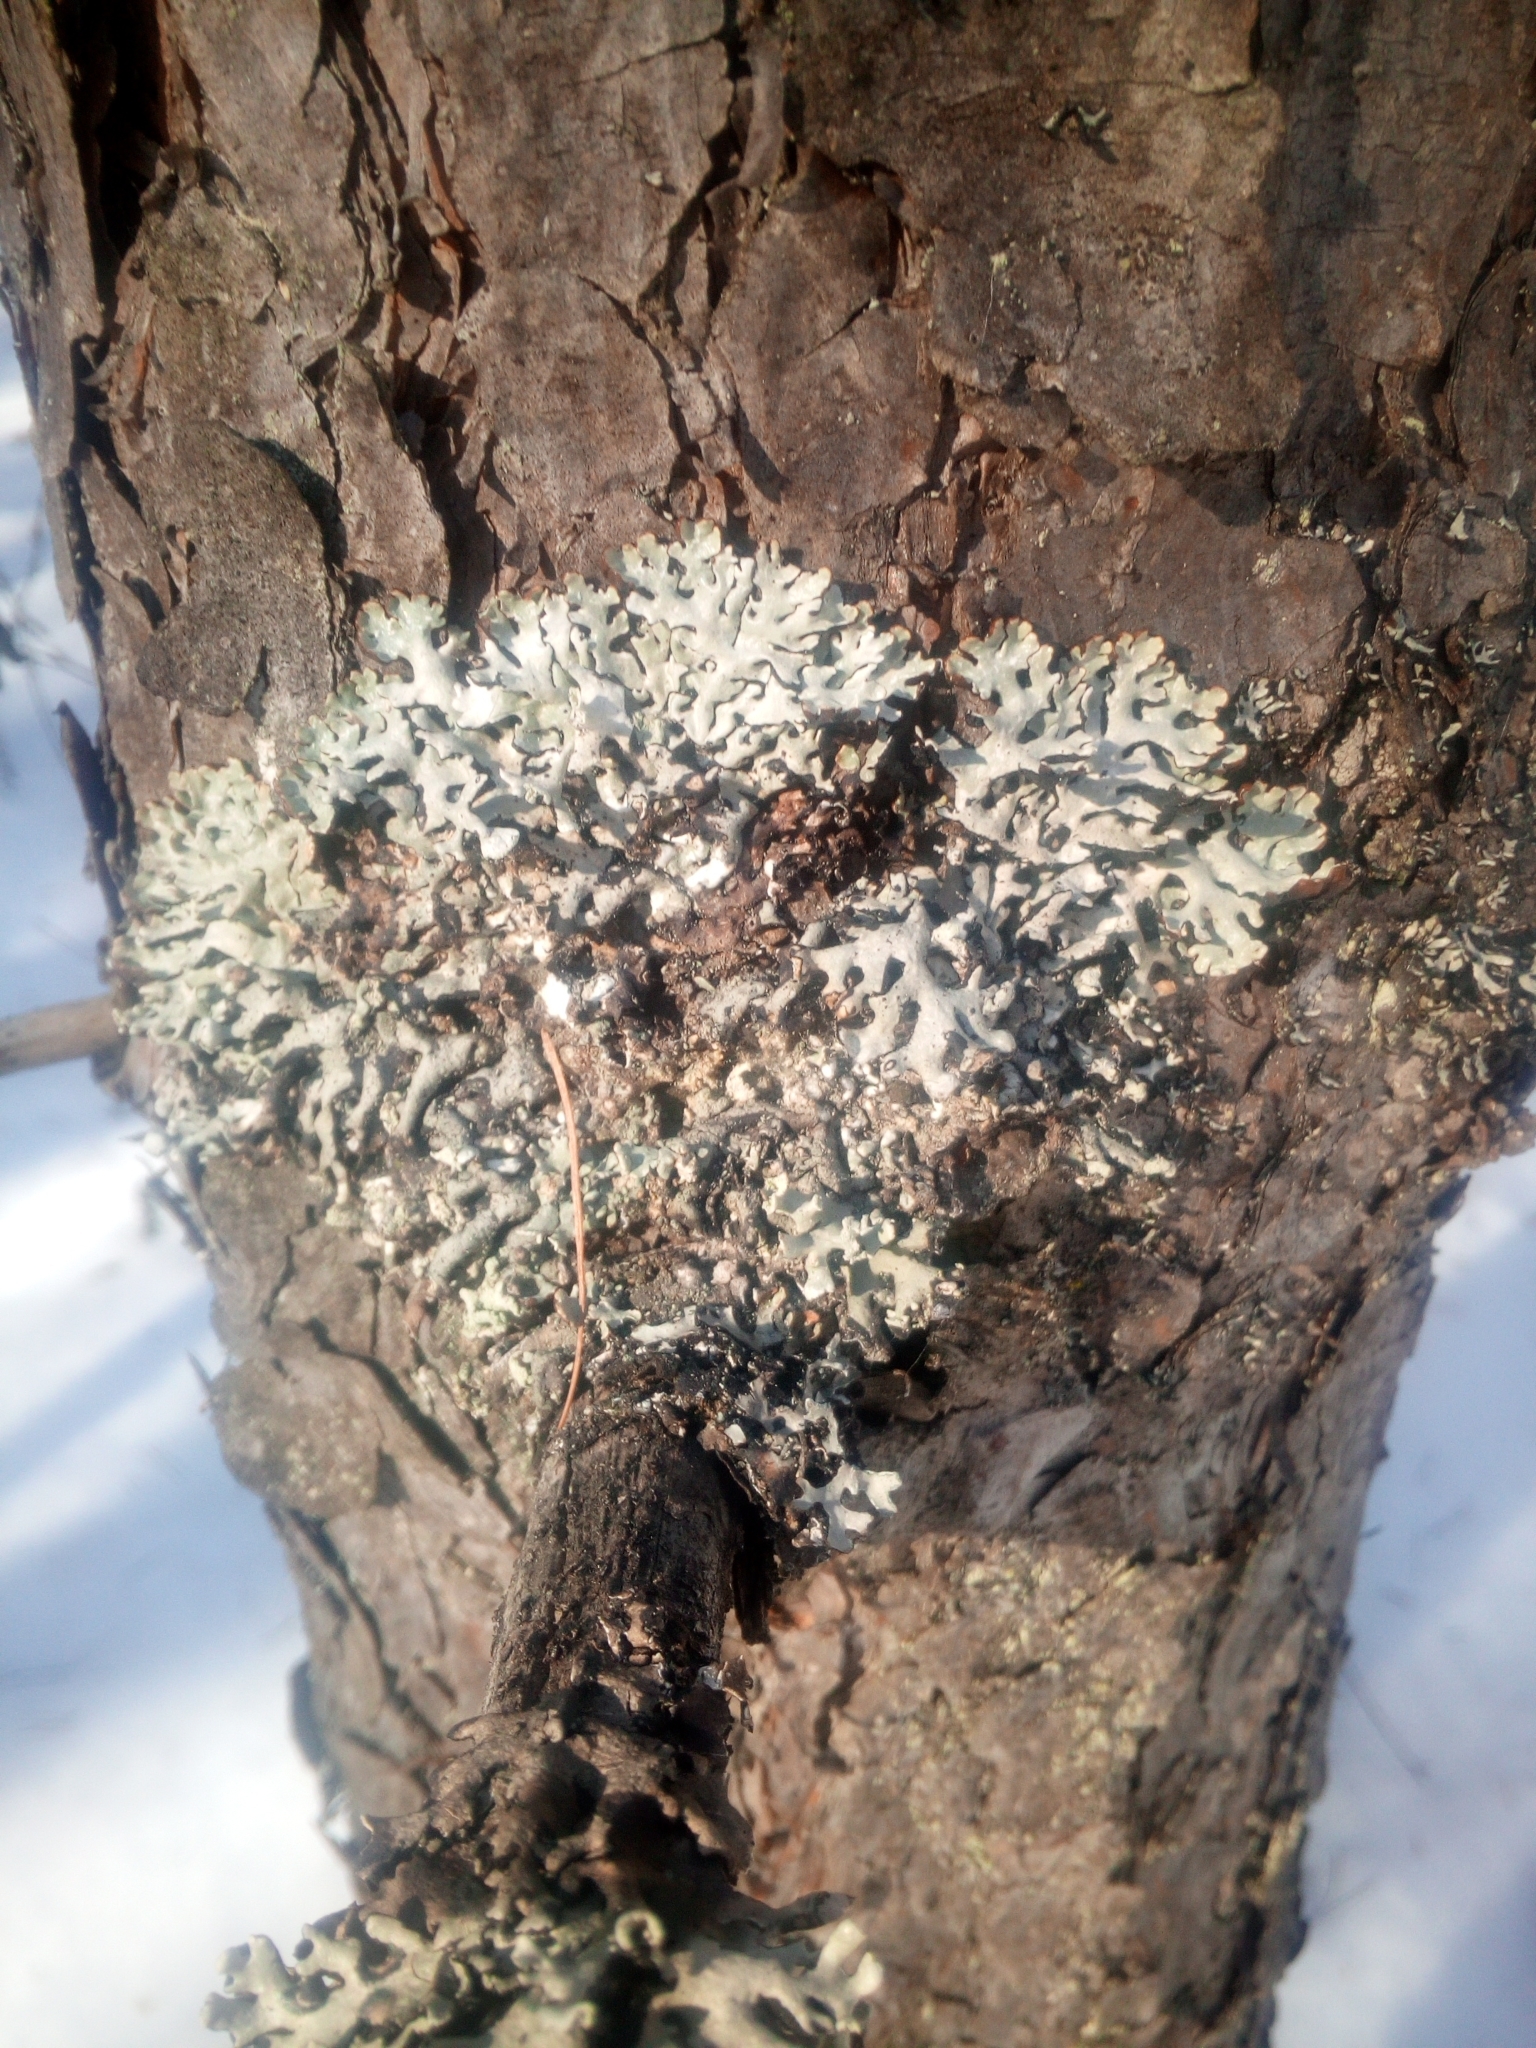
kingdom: Fungi
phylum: Ascomycota
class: Lecanoromycetes
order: Lecanorales
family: Parmeliaceae
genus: Hypogymnia
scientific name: Hypogymnia physodes
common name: Dark crottle
